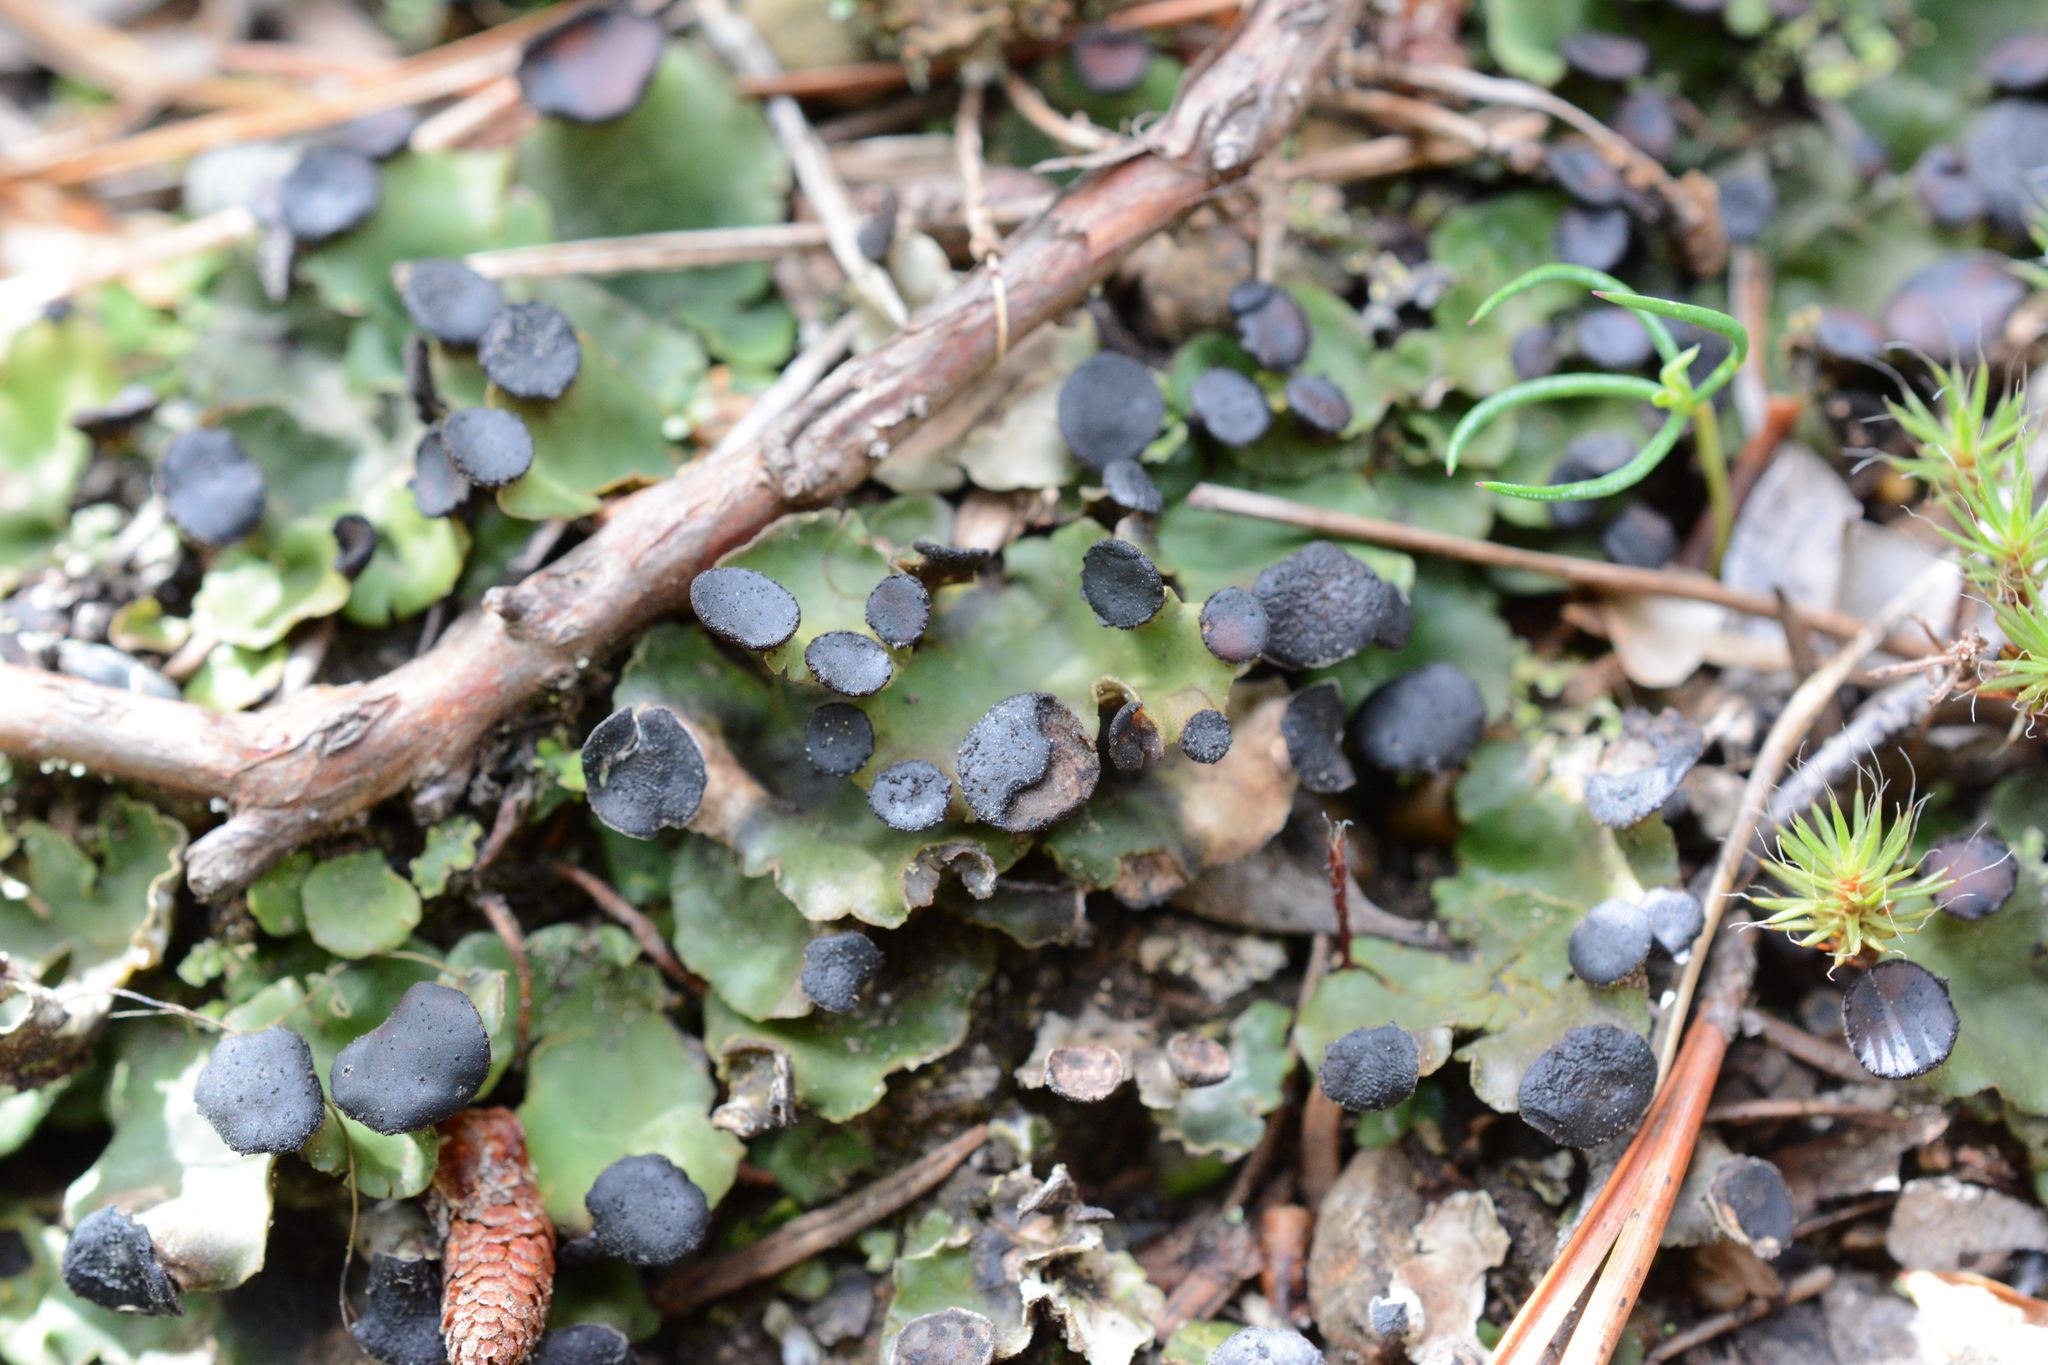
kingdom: Fungi
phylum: Ascomycota
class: Lecanoromycetes
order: Peltigerales
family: Peltigeraceae
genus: Peltigera
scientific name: Peltigera venosa
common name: Pixie gowns lichen
